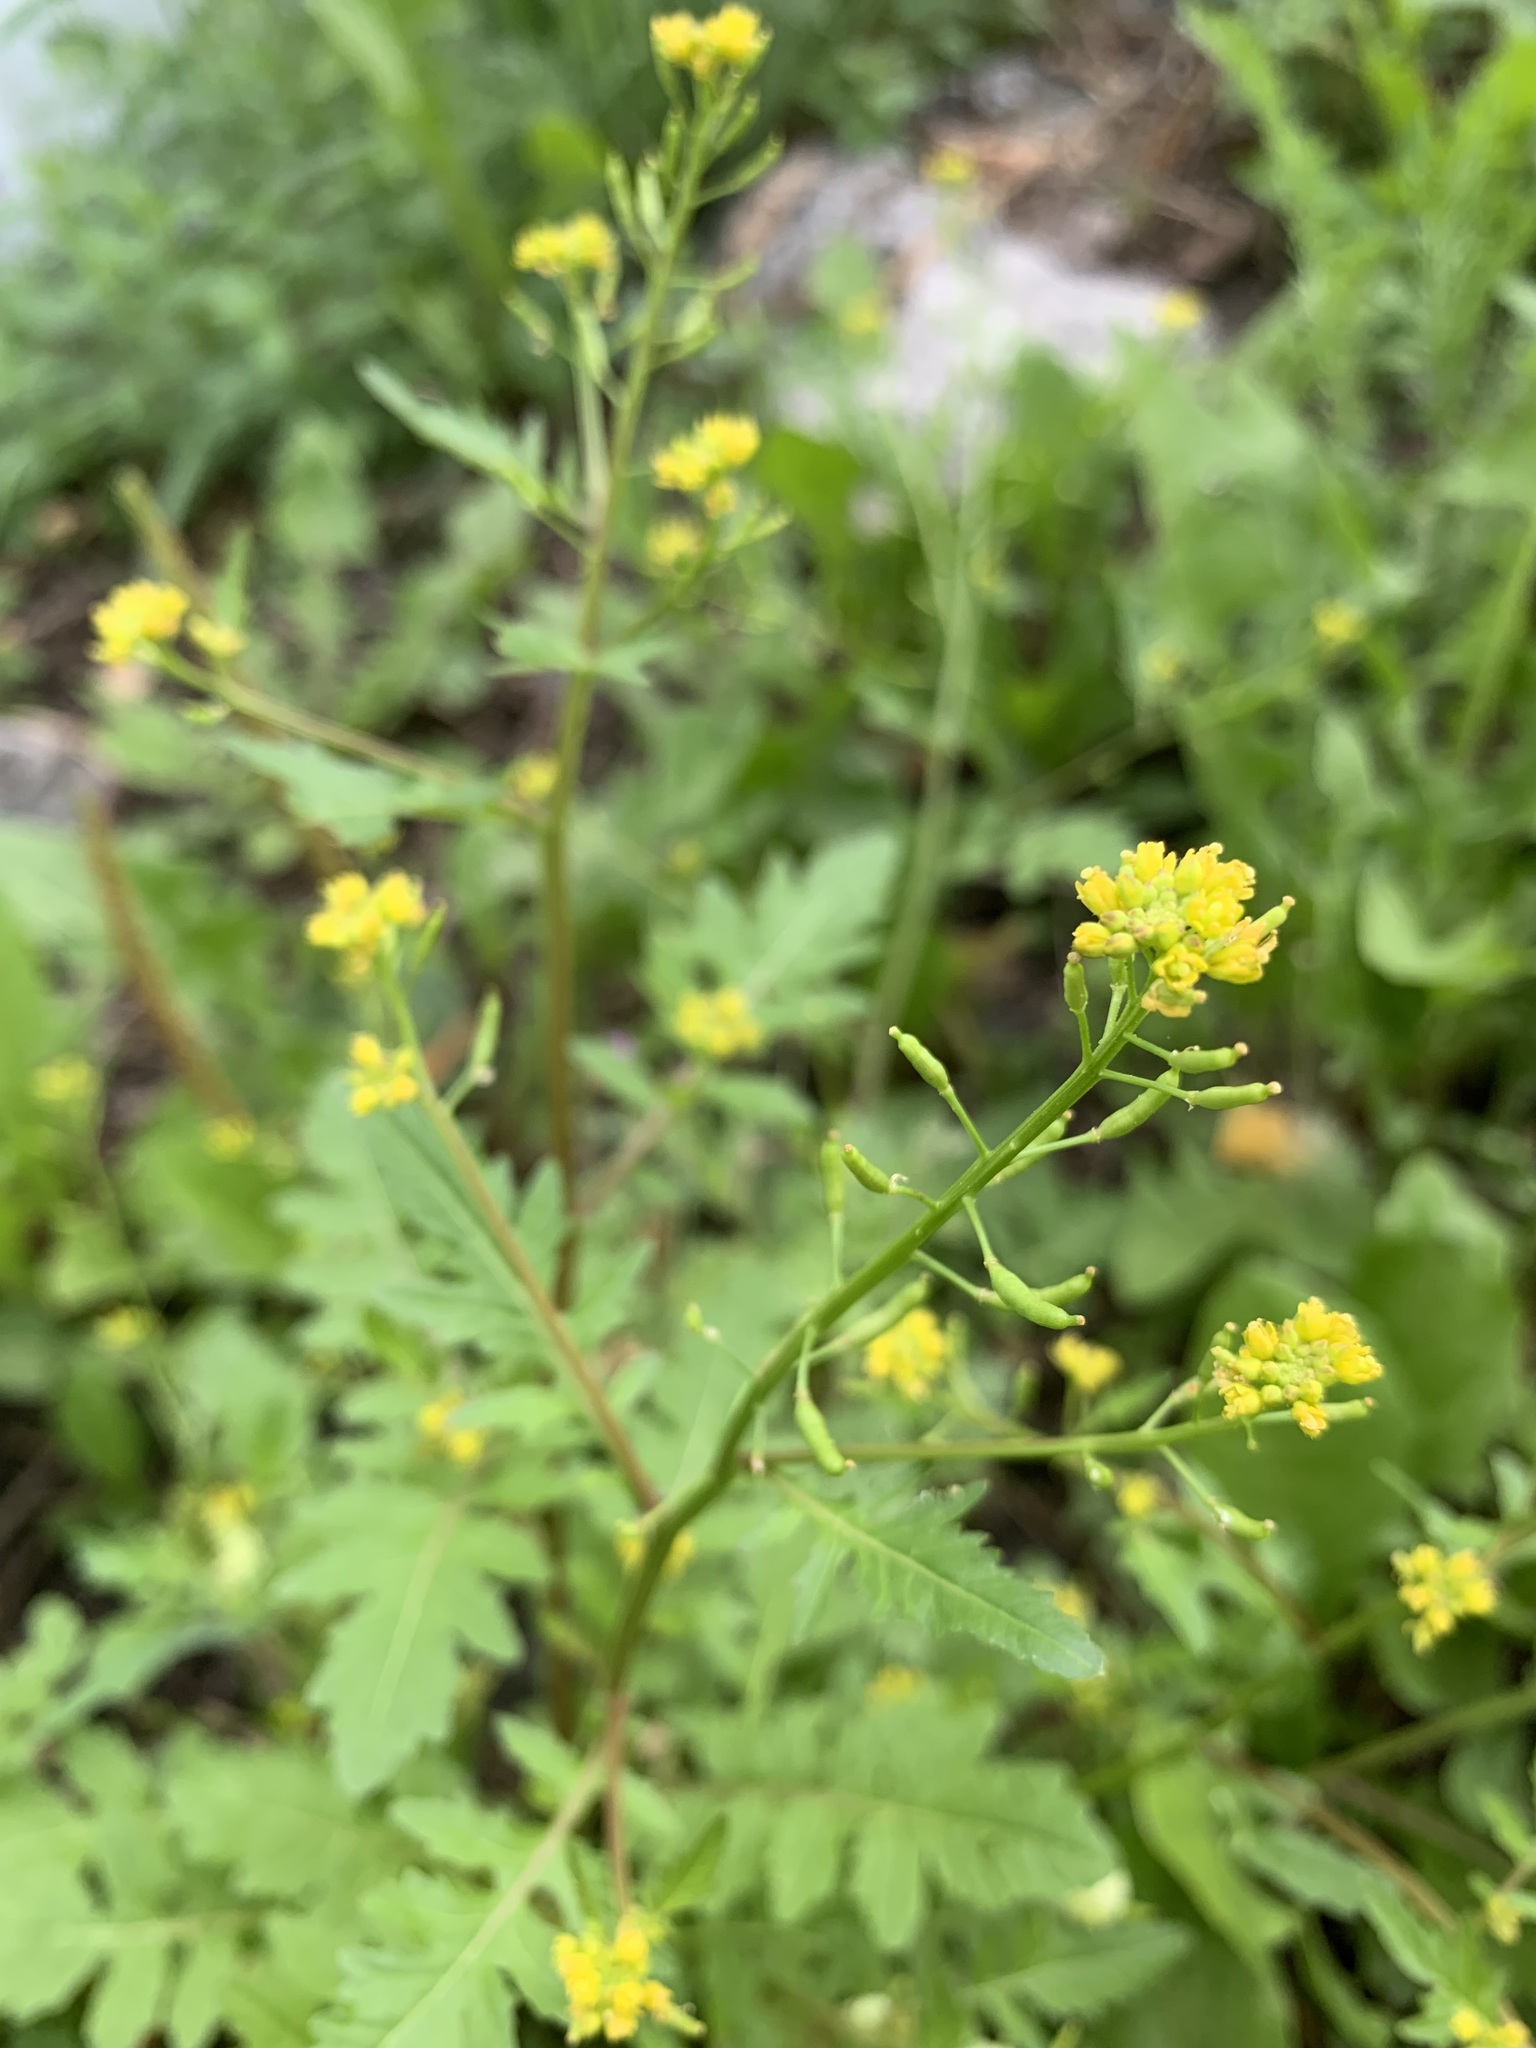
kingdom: Plantae
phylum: Tracheophyta
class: Magnoliopsida
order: Brassicales
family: Brassicaceae
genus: Rorippa
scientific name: Rorippa palustris
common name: Marsh yellow-cress
